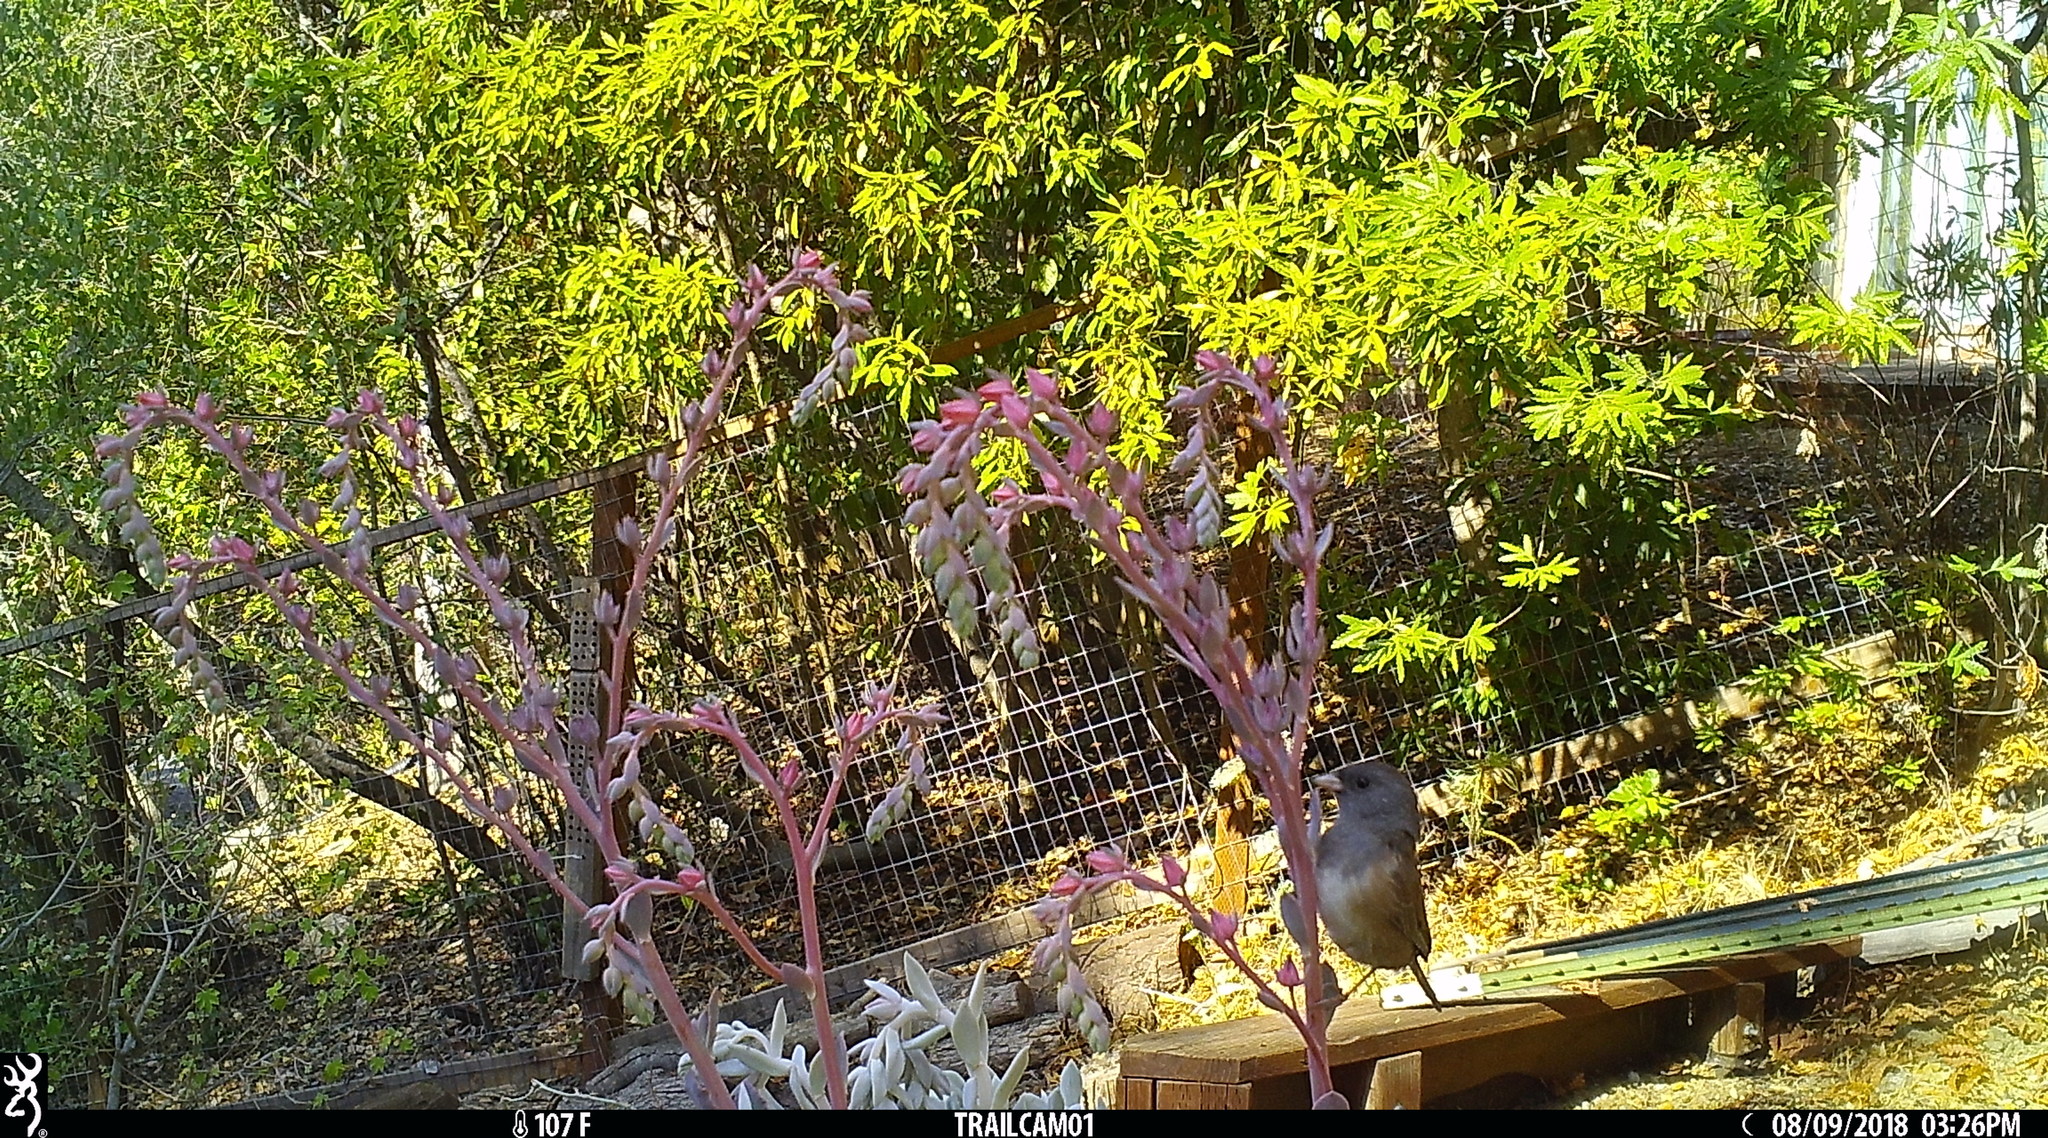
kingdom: Animalia
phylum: Chordata
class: Aves
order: Passeriformes
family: Passerellidae
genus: Junco
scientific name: Junco hyemalis
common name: Dark-eyed junco
